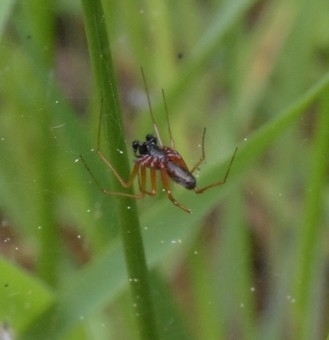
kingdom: Animalia
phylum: Arthropoda
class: Arachnida
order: Araneae
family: Linyphiidae
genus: Linyphia
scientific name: Linyphia hortensis
